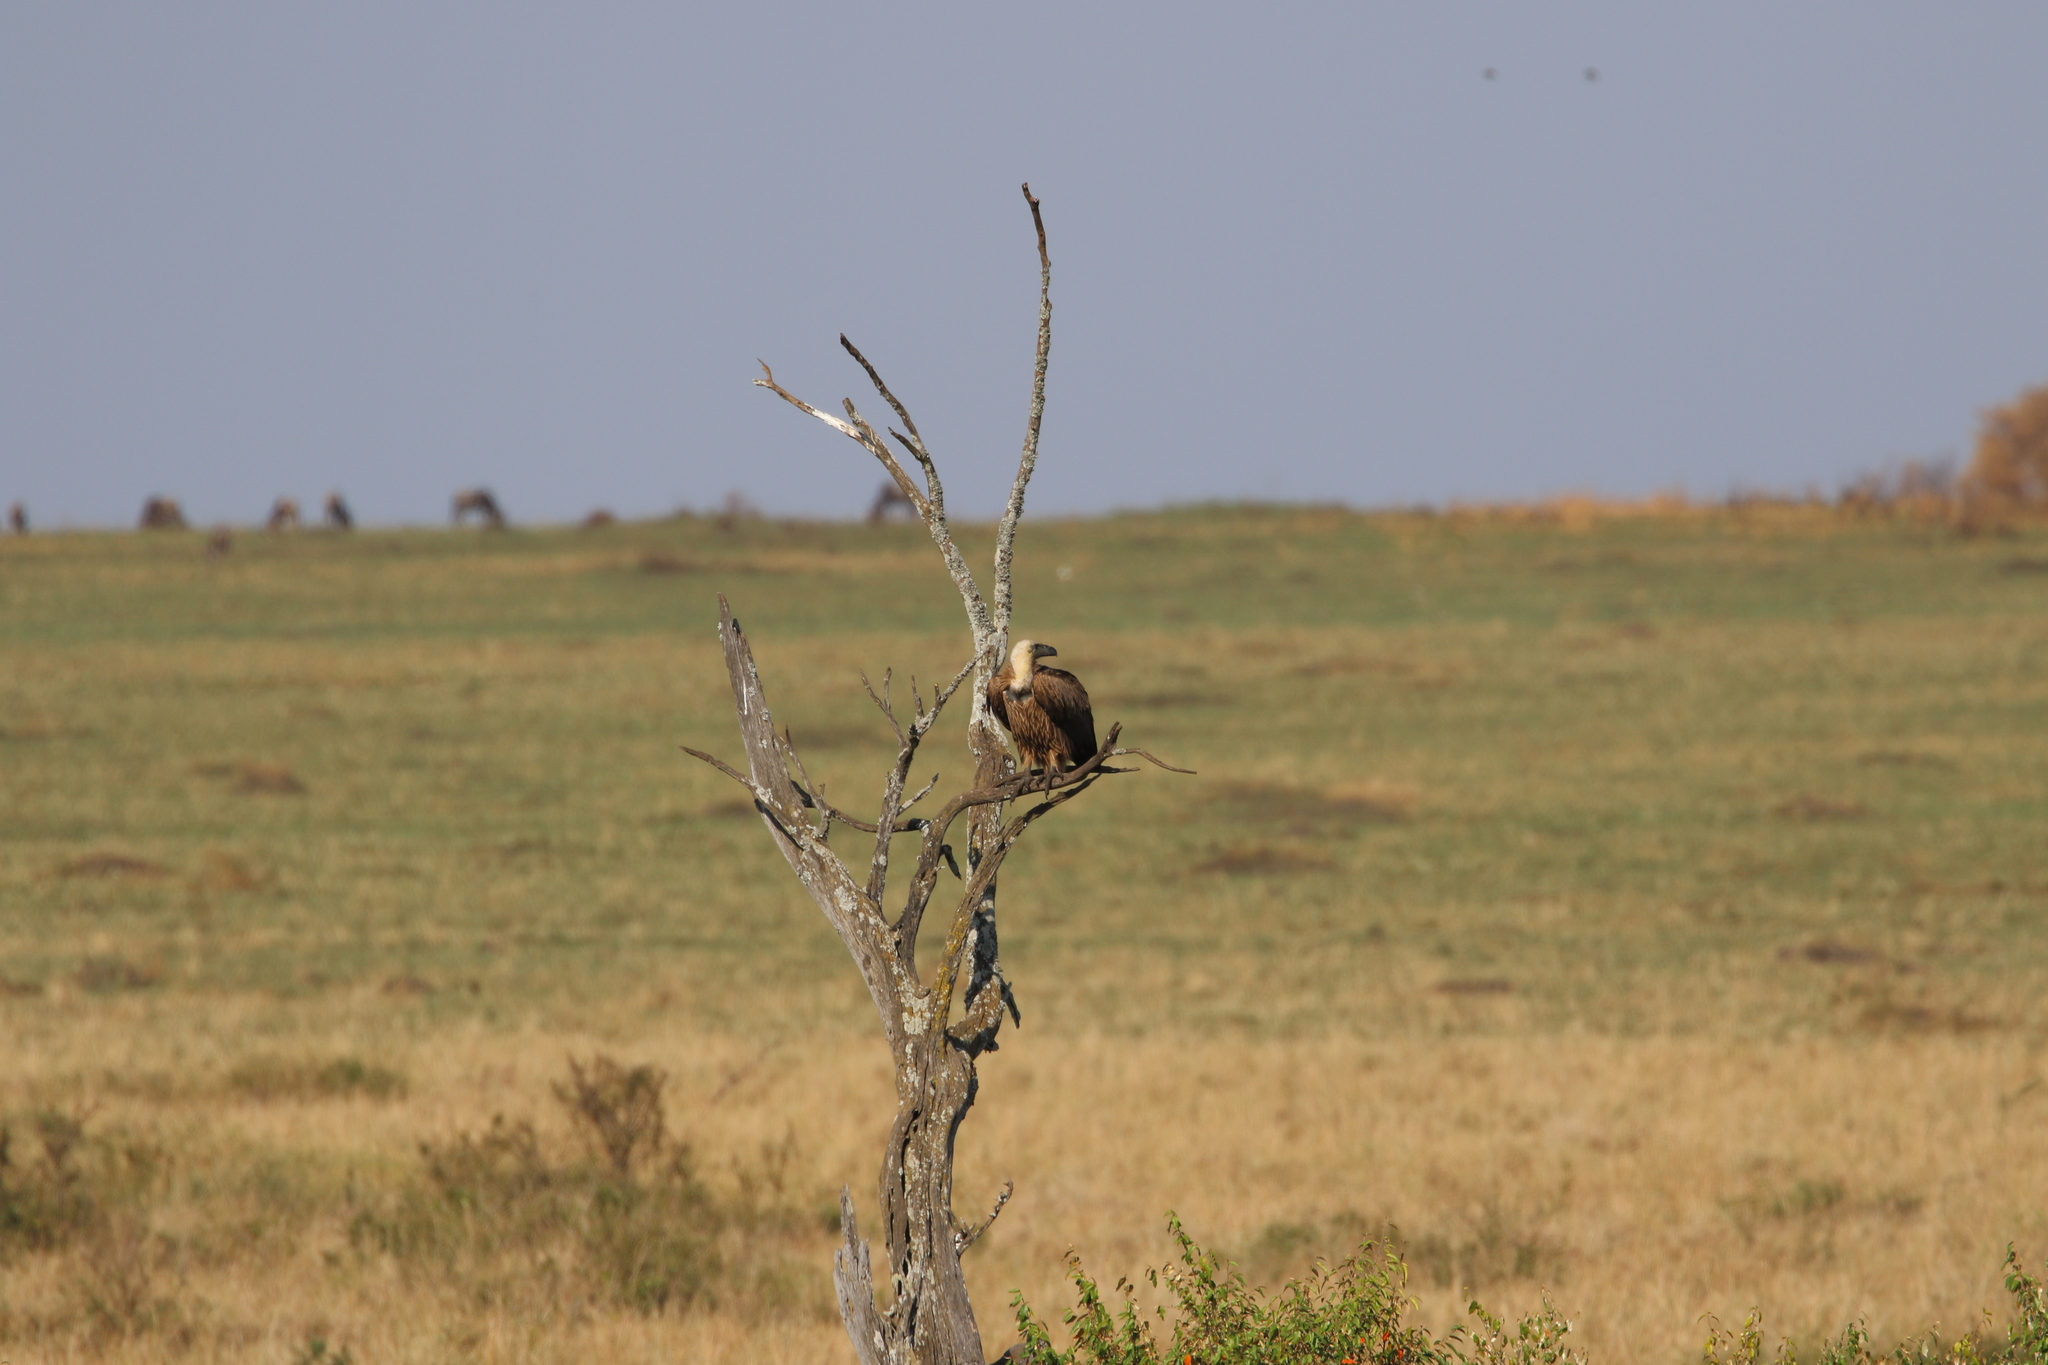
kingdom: Animalia
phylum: Chordata
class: Aves
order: Accipitriformes
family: Accipitridae
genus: Gyps
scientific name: Gyps africanus
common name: White-backed vulture
